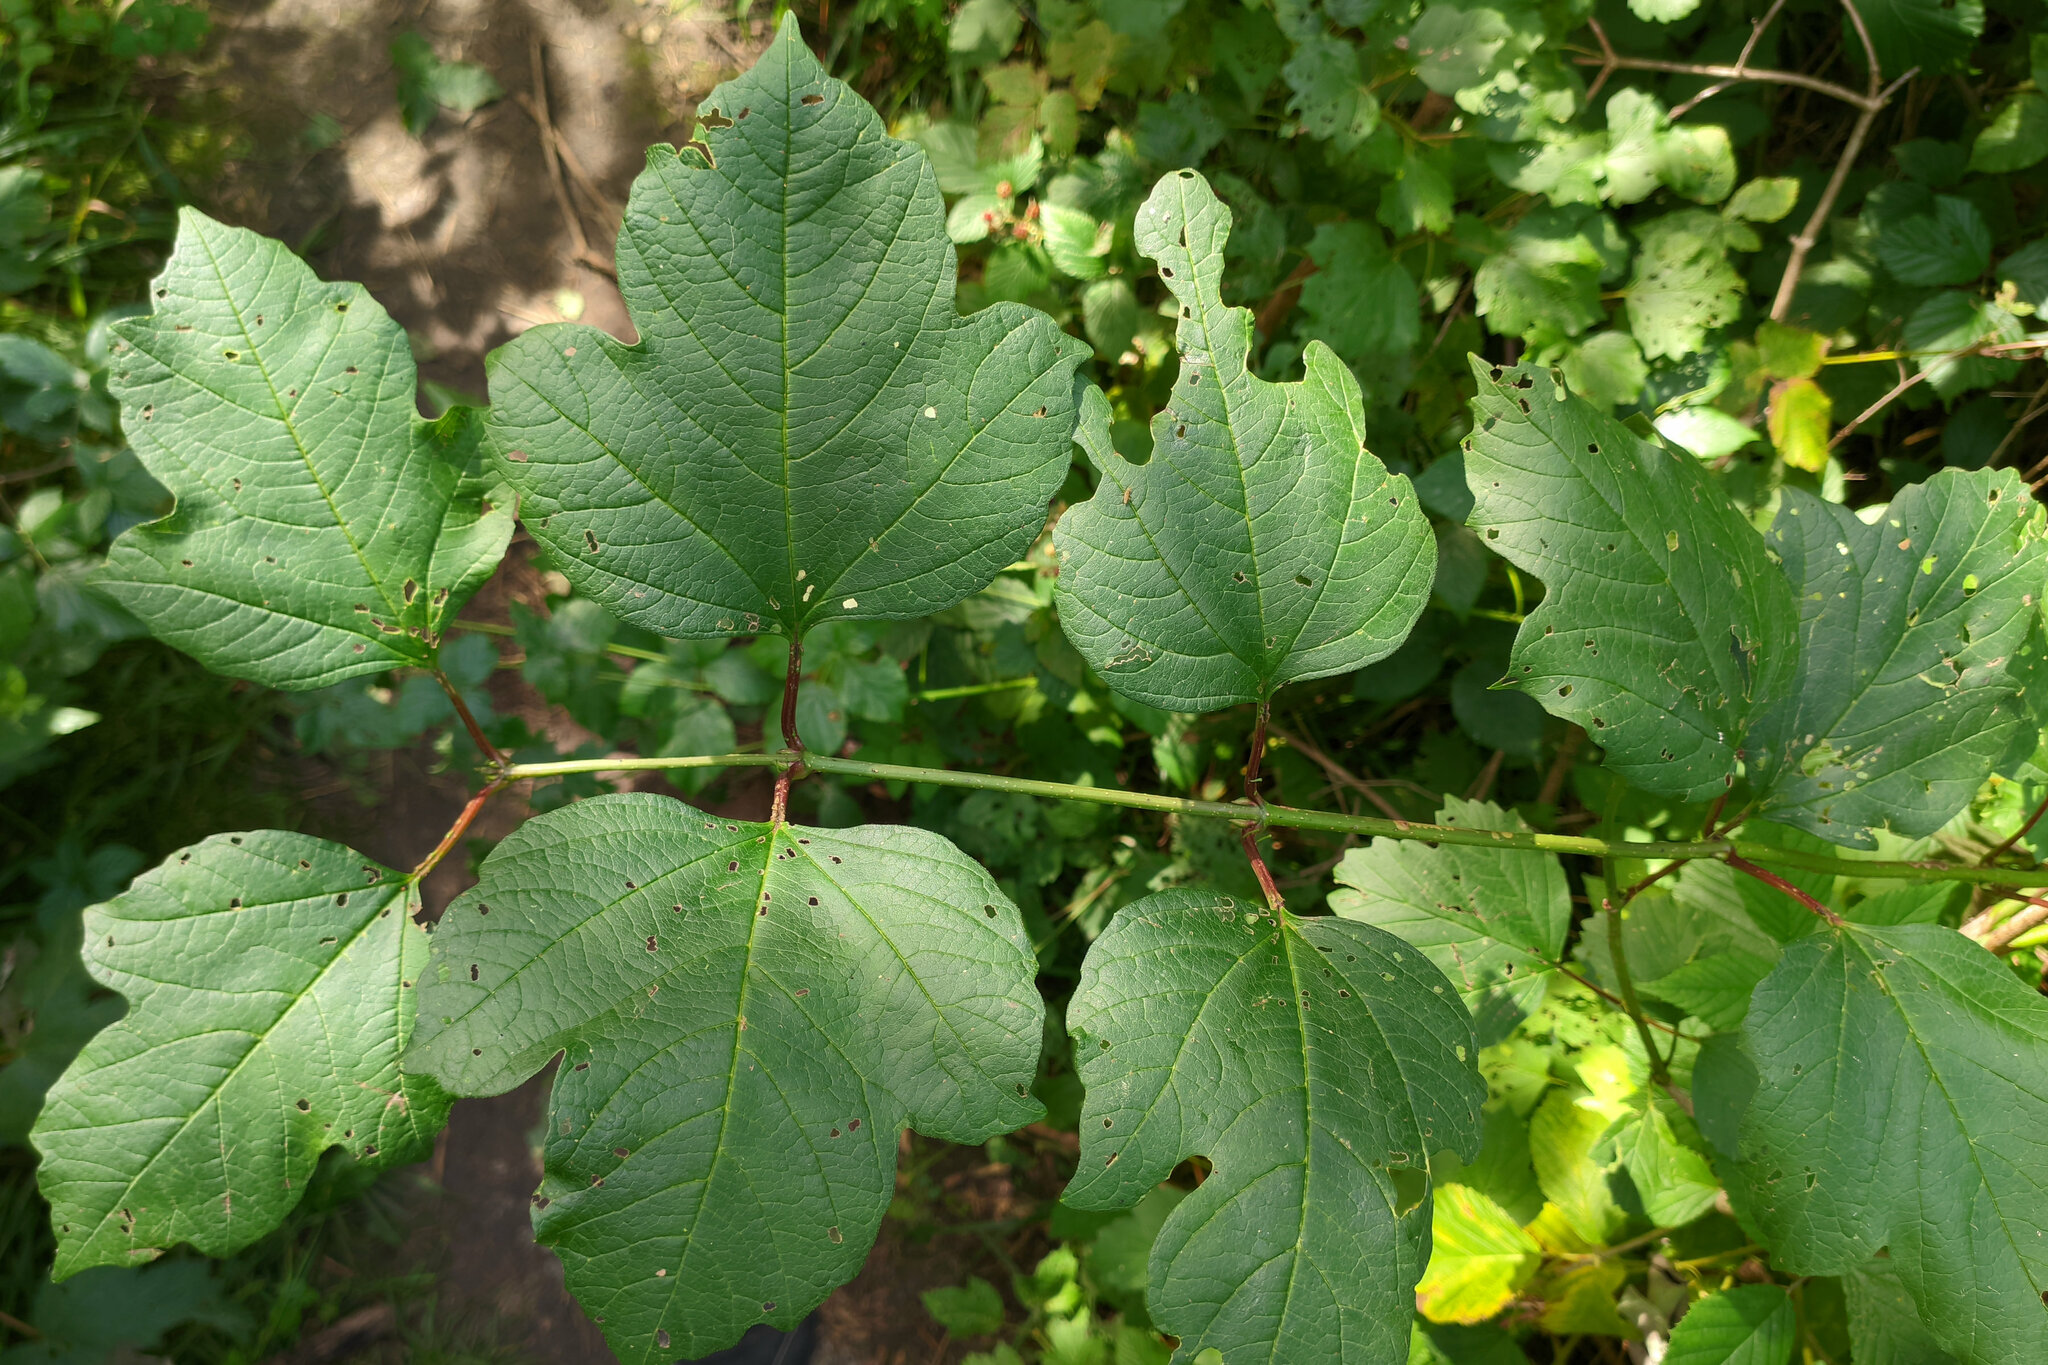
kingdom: Animalia
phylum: Arthropoda
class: Insecta
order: Coleoptera
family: Chrysomelidae
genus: Pyrrhalta
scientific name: Pyrrhalta viburni
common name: Guelder-rose leaf beetle
